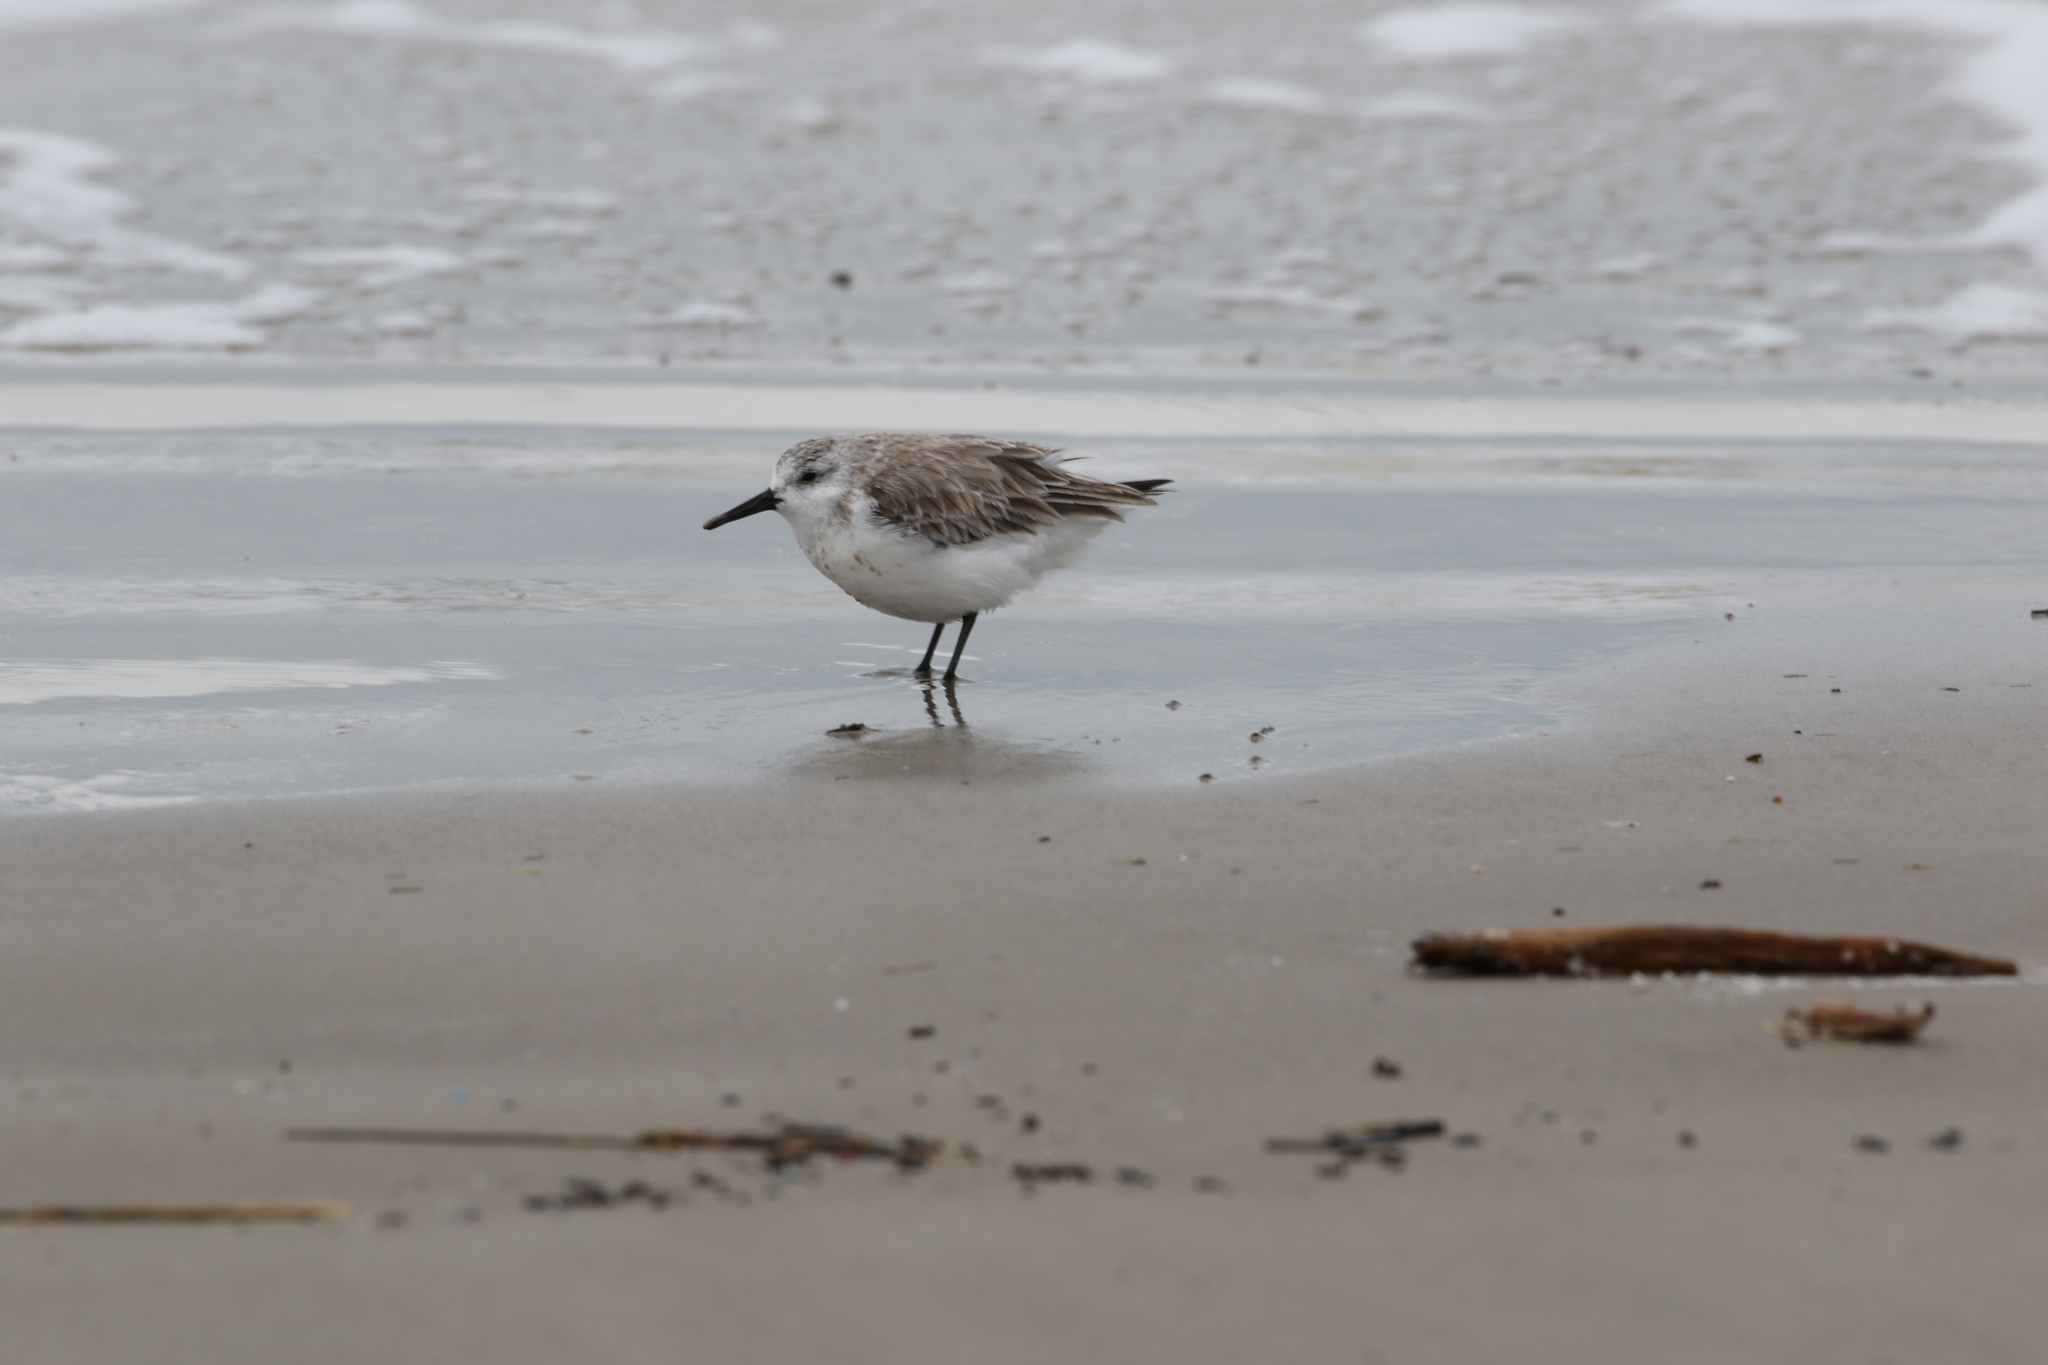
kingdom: Animalia
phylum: Chordata
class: Aves
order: Charadriiformes
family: Scolopacidae
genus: Calidris
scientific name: Calidris alba
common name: Sanderling
